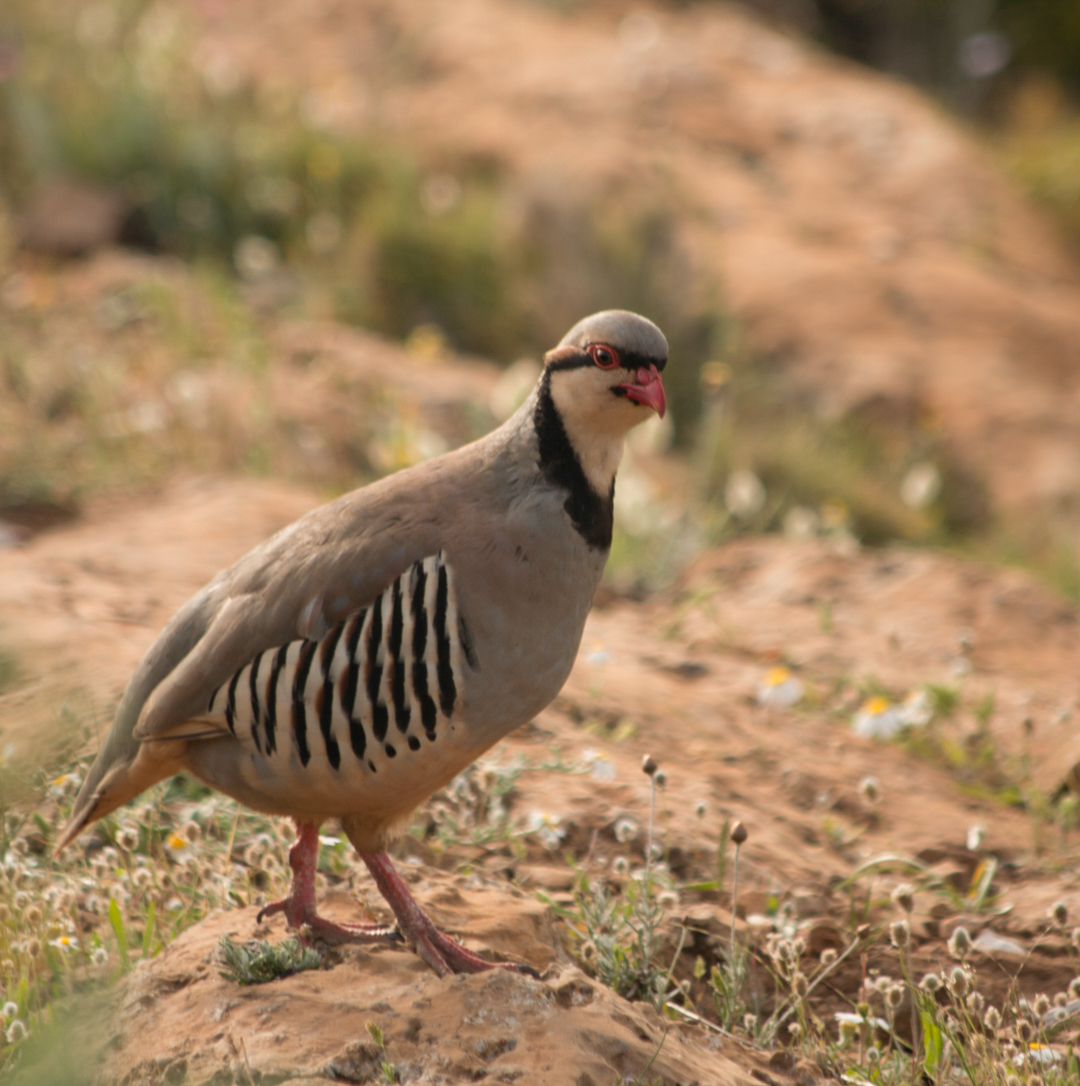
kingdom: Animalia
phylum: Chordata
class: Aves
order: Galliformes
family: Phasianidae
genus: Alectoris
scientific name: Alectoris chukar
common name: Chukar
